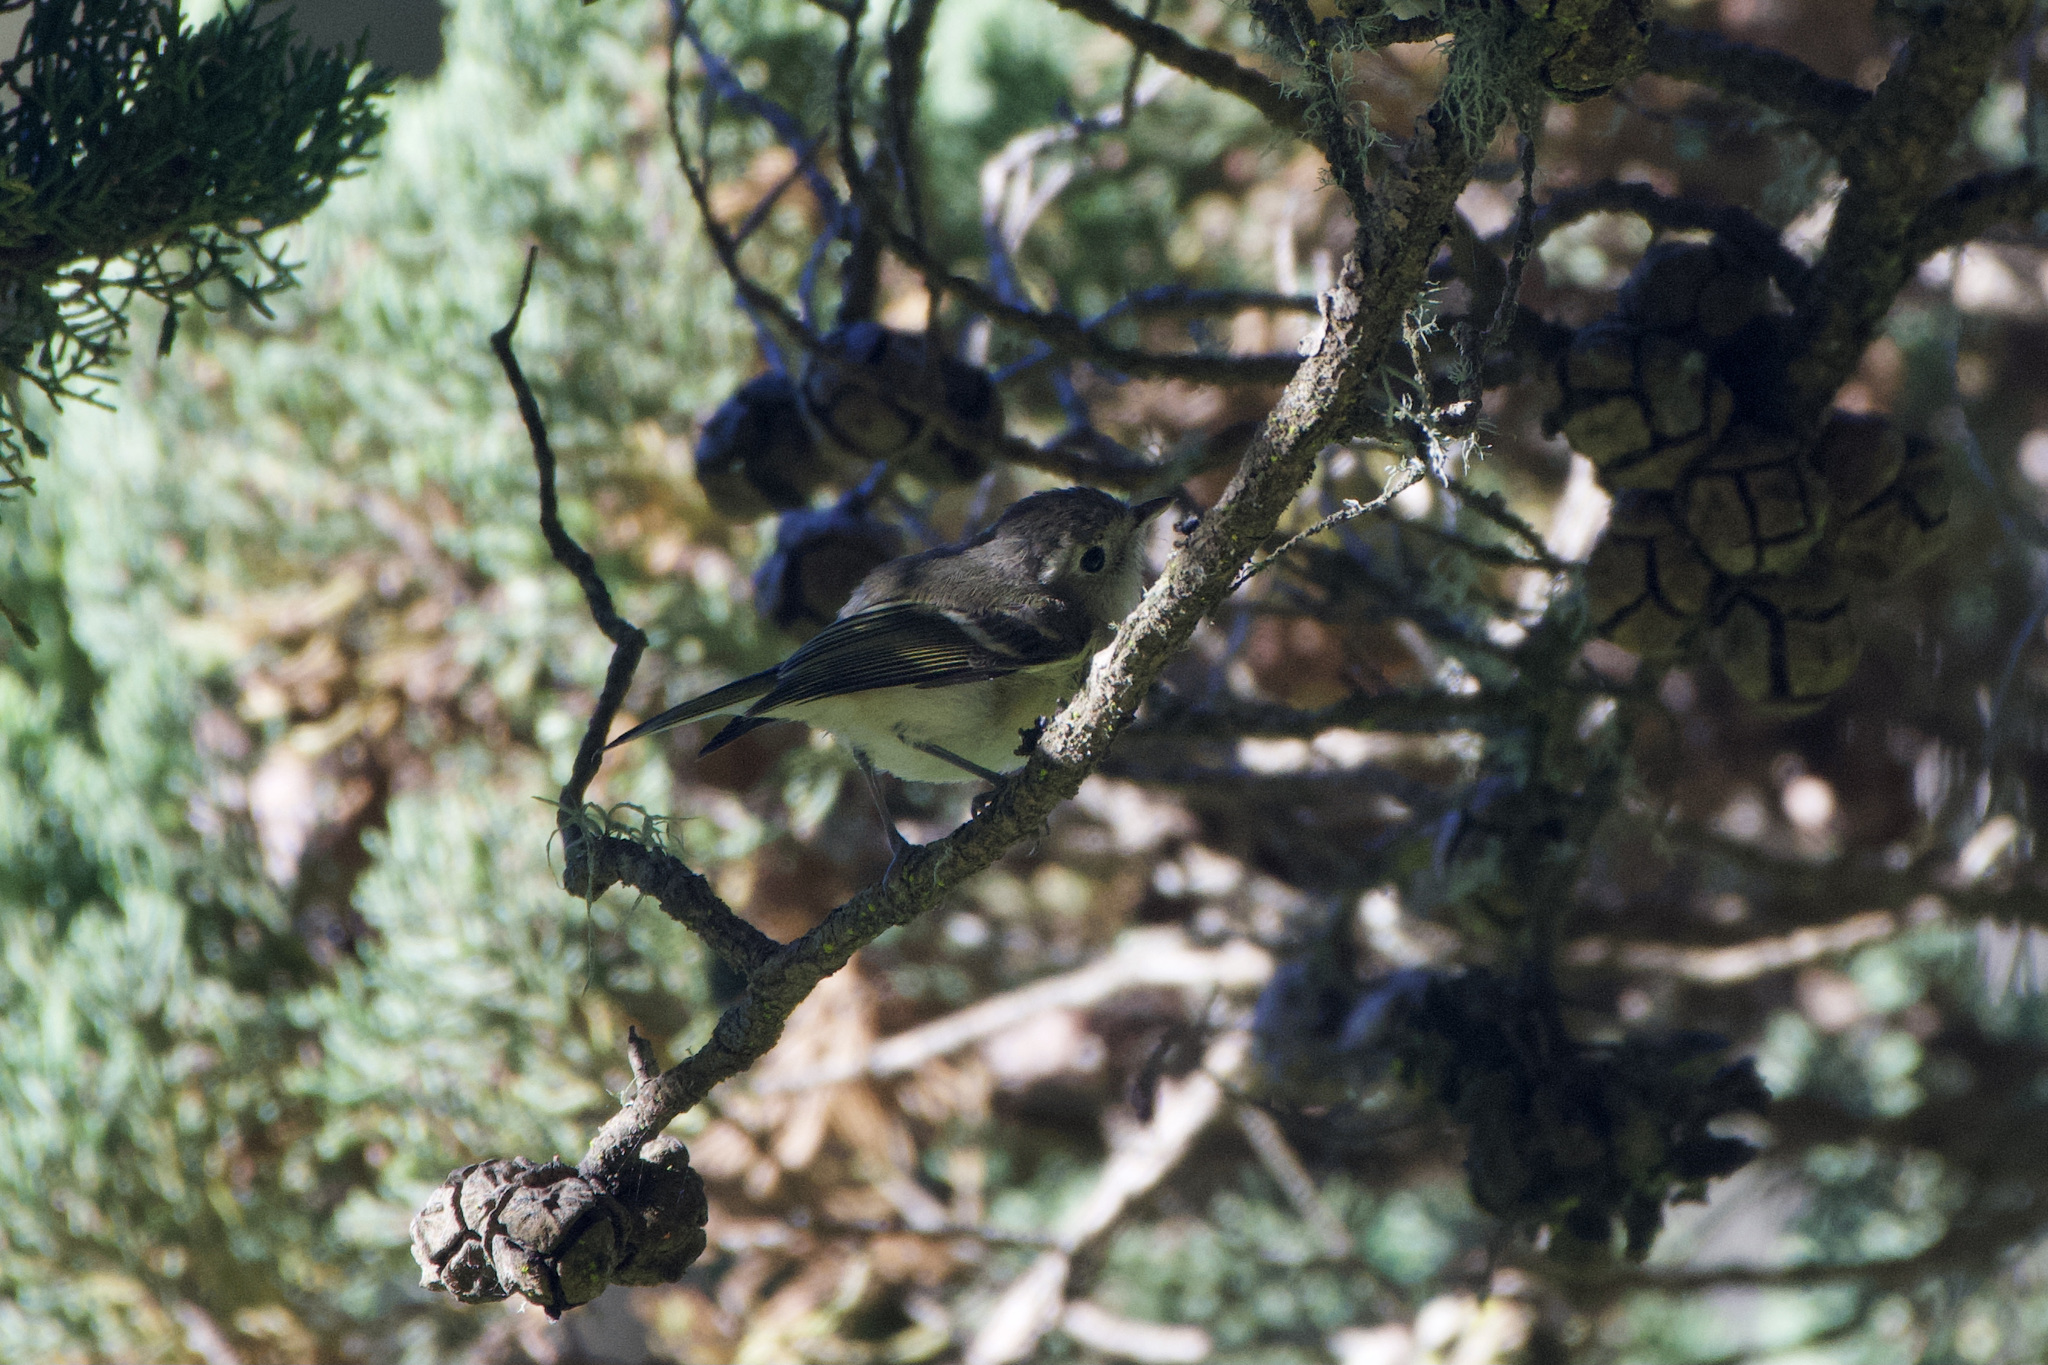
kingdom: Animalia
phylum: Chordata
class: Aves
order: Passeriformes
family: Vireonidae
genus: Vireo
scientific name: Vireo huttoni
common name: Hutton's vireo
